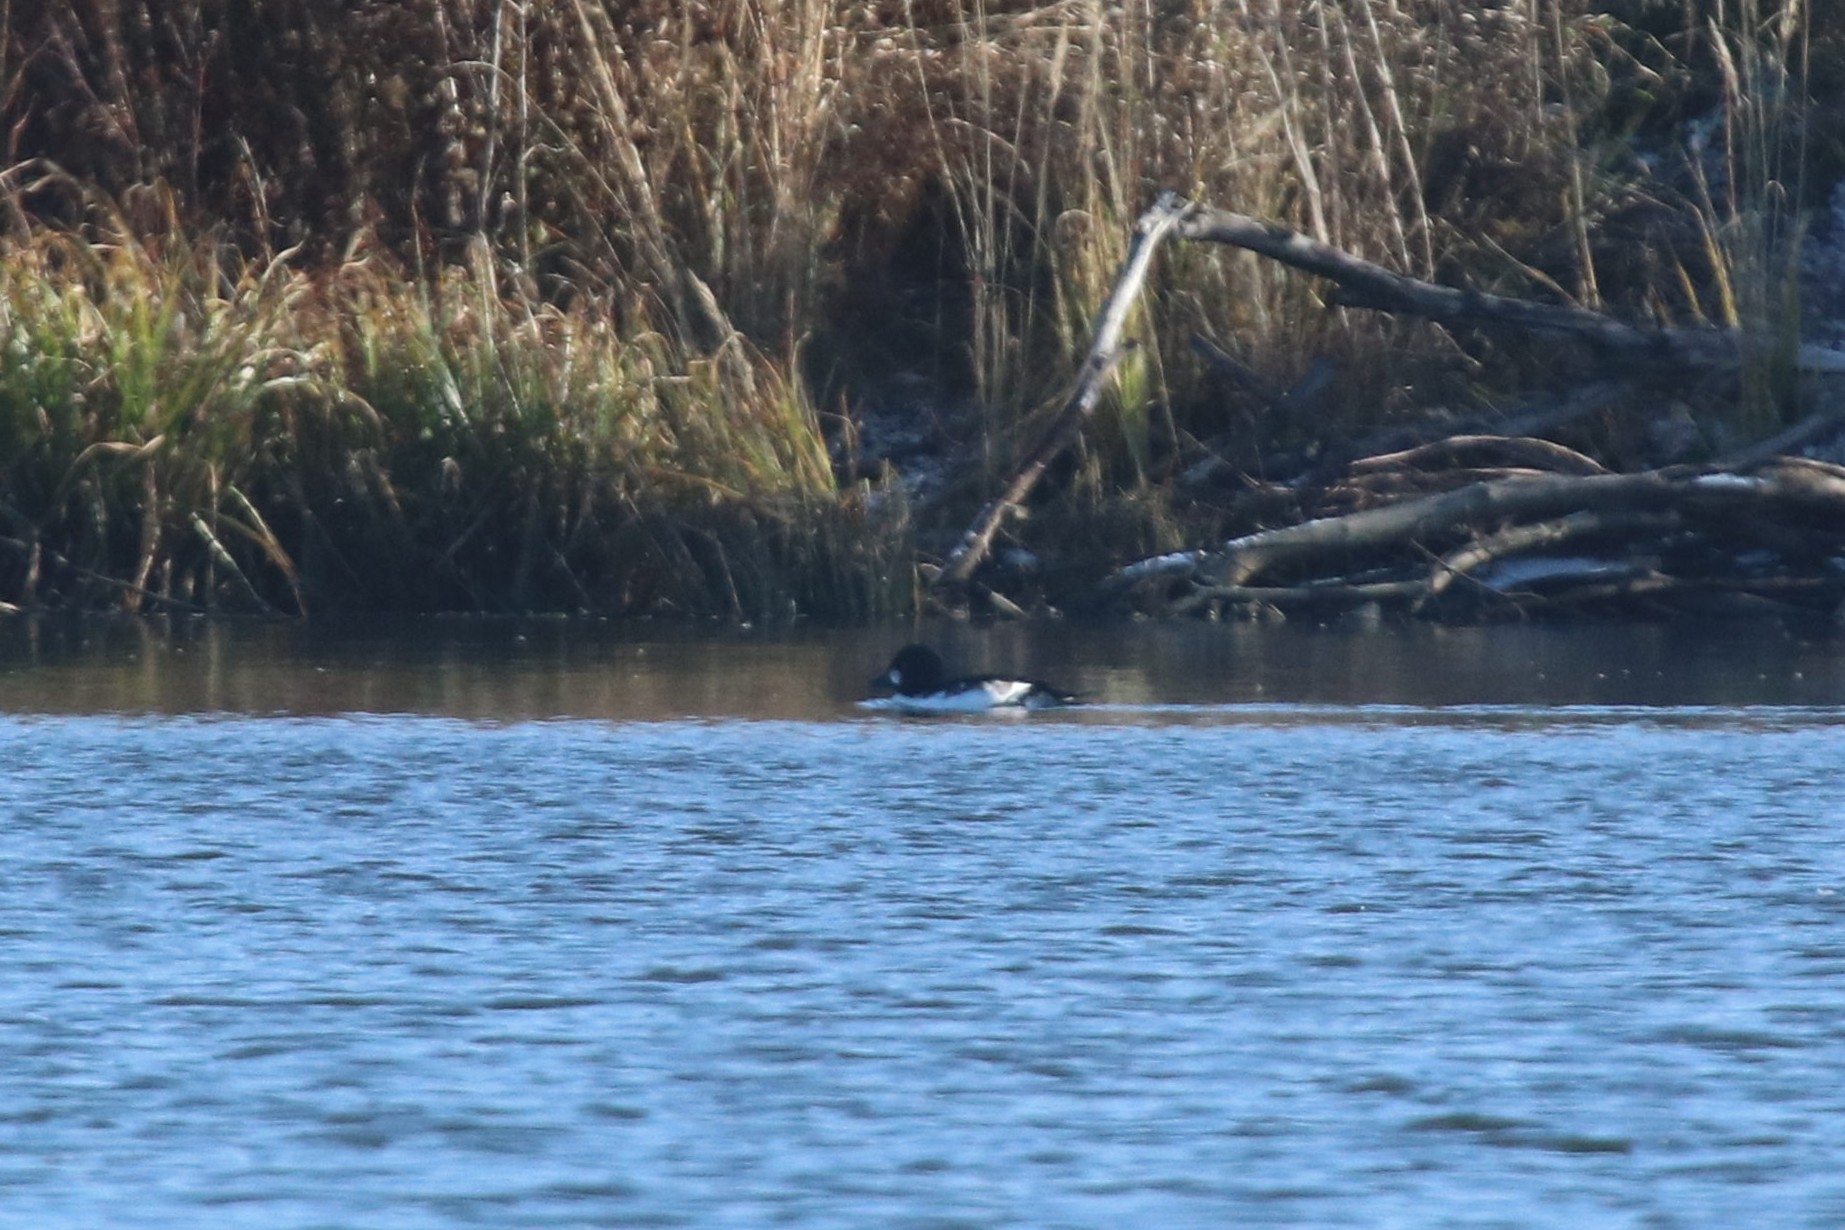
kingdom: Animalia
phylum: Chordata
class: Aves
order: Anseriformes
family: Anatidae
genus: Bucephala
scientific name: Bucephala clangula
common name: Common goldeneye
